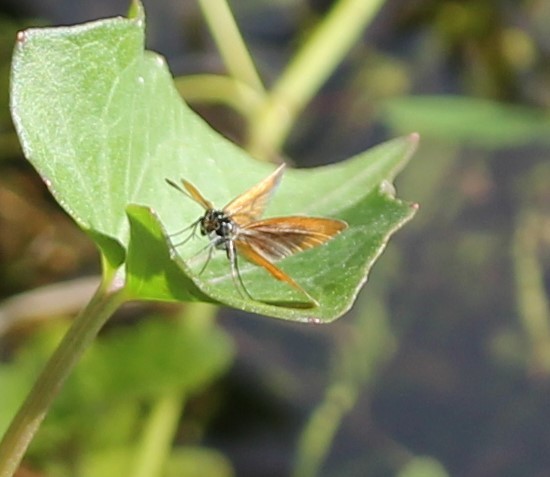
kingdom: Animalia
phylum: Arthropoda
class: Insecta
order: Lepidoptera
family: Hesperiidae
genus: Ancyloxypha
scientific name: Ancyloxypha numitor
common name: Least skipper
